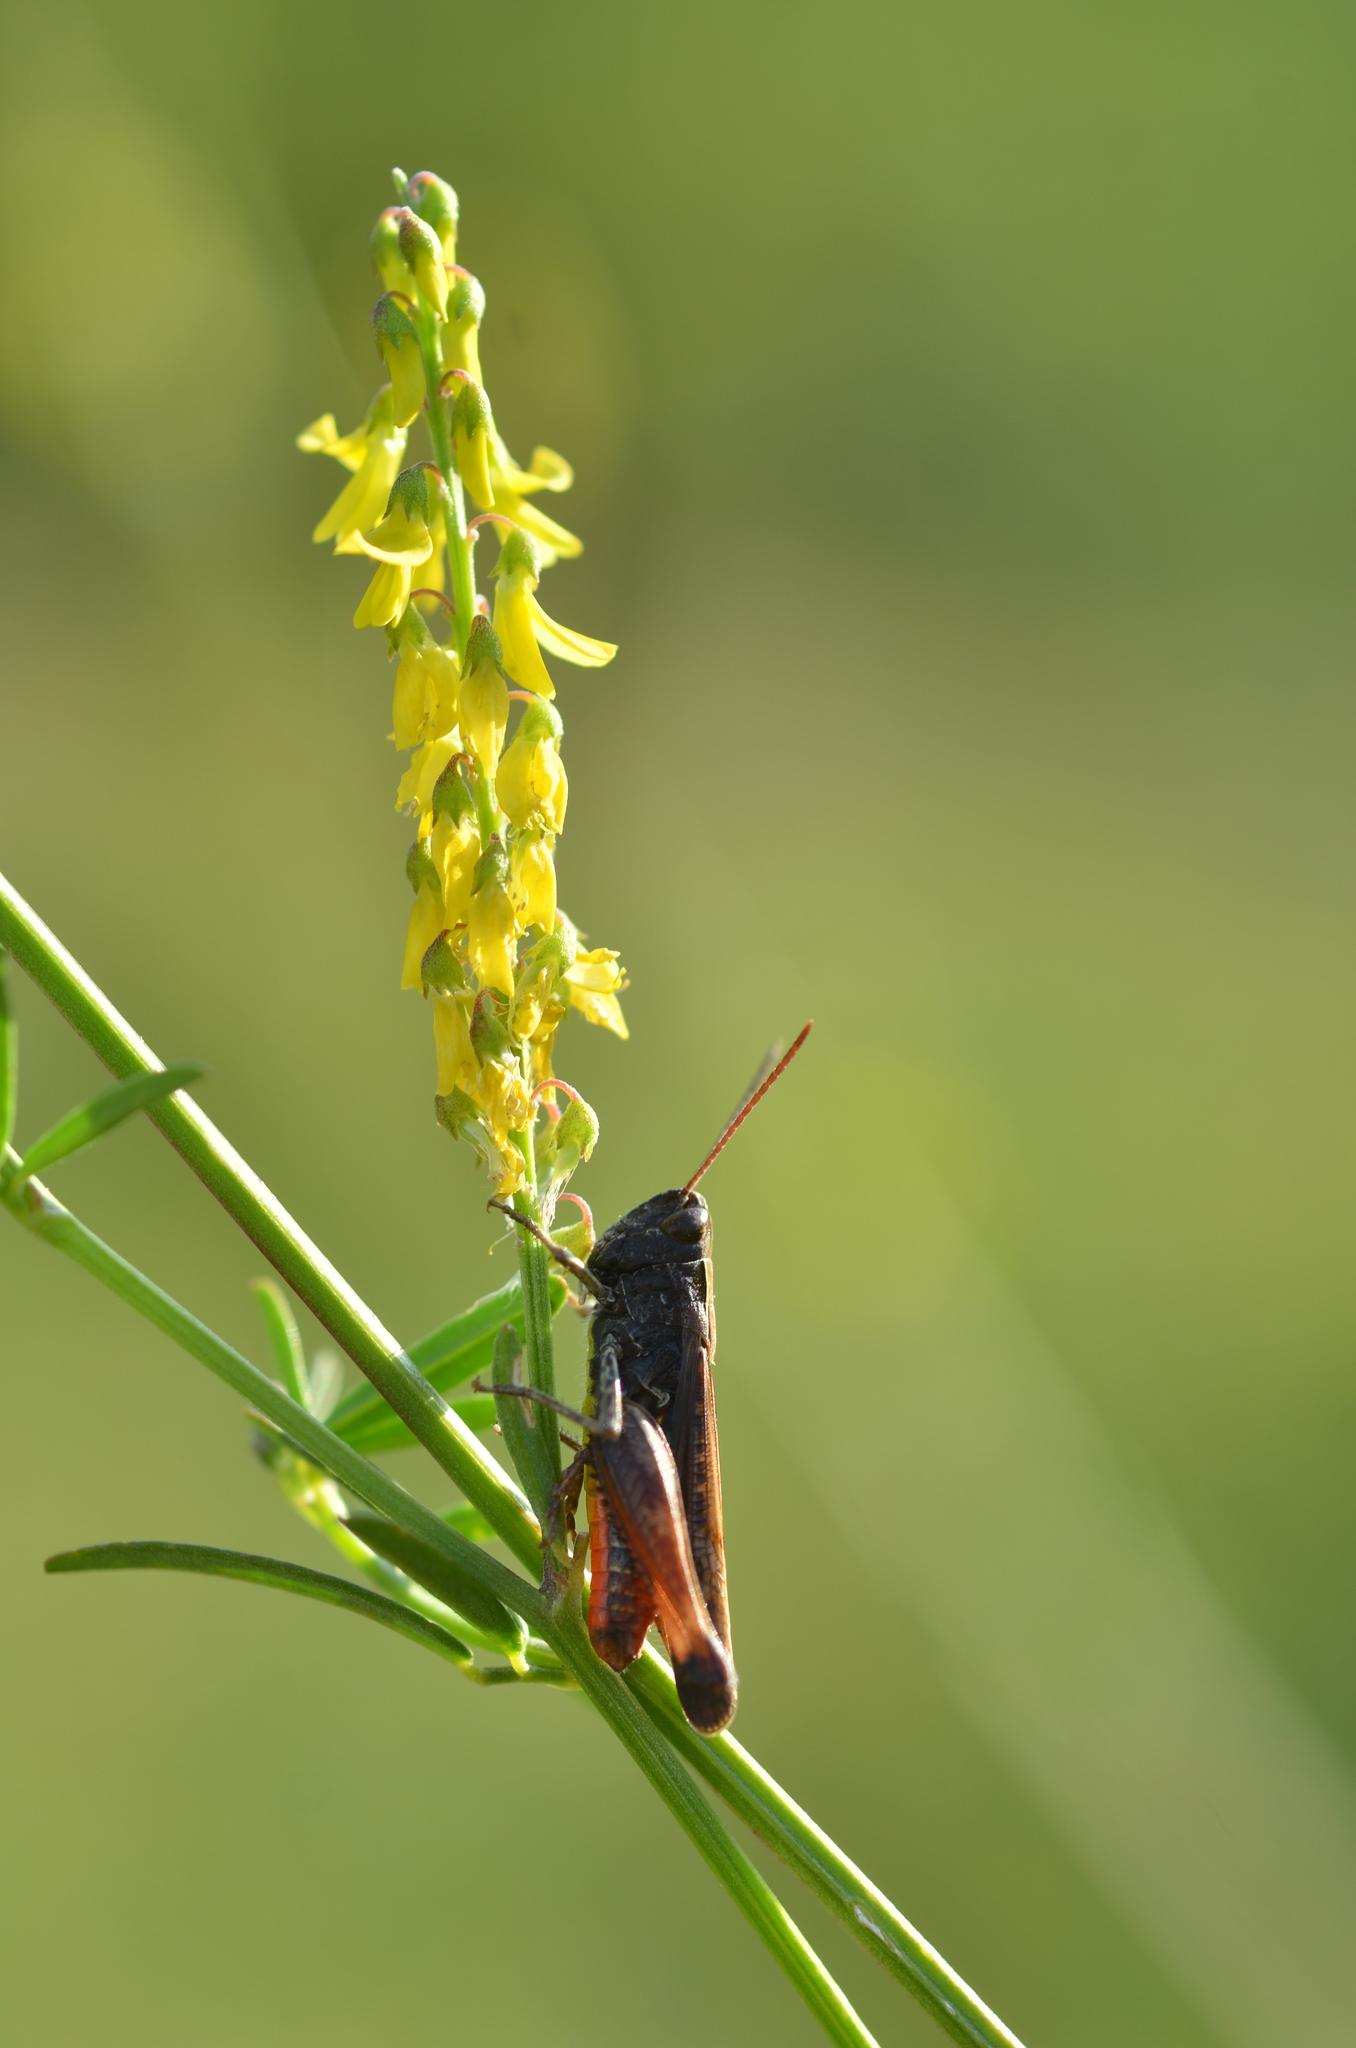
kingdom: Animalia
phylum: Arthropoda
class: Insecta
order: Orthoptera
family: Acrididae
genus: Omocestus
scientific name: Omocestus rufipes
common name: Woodland grasshopper
